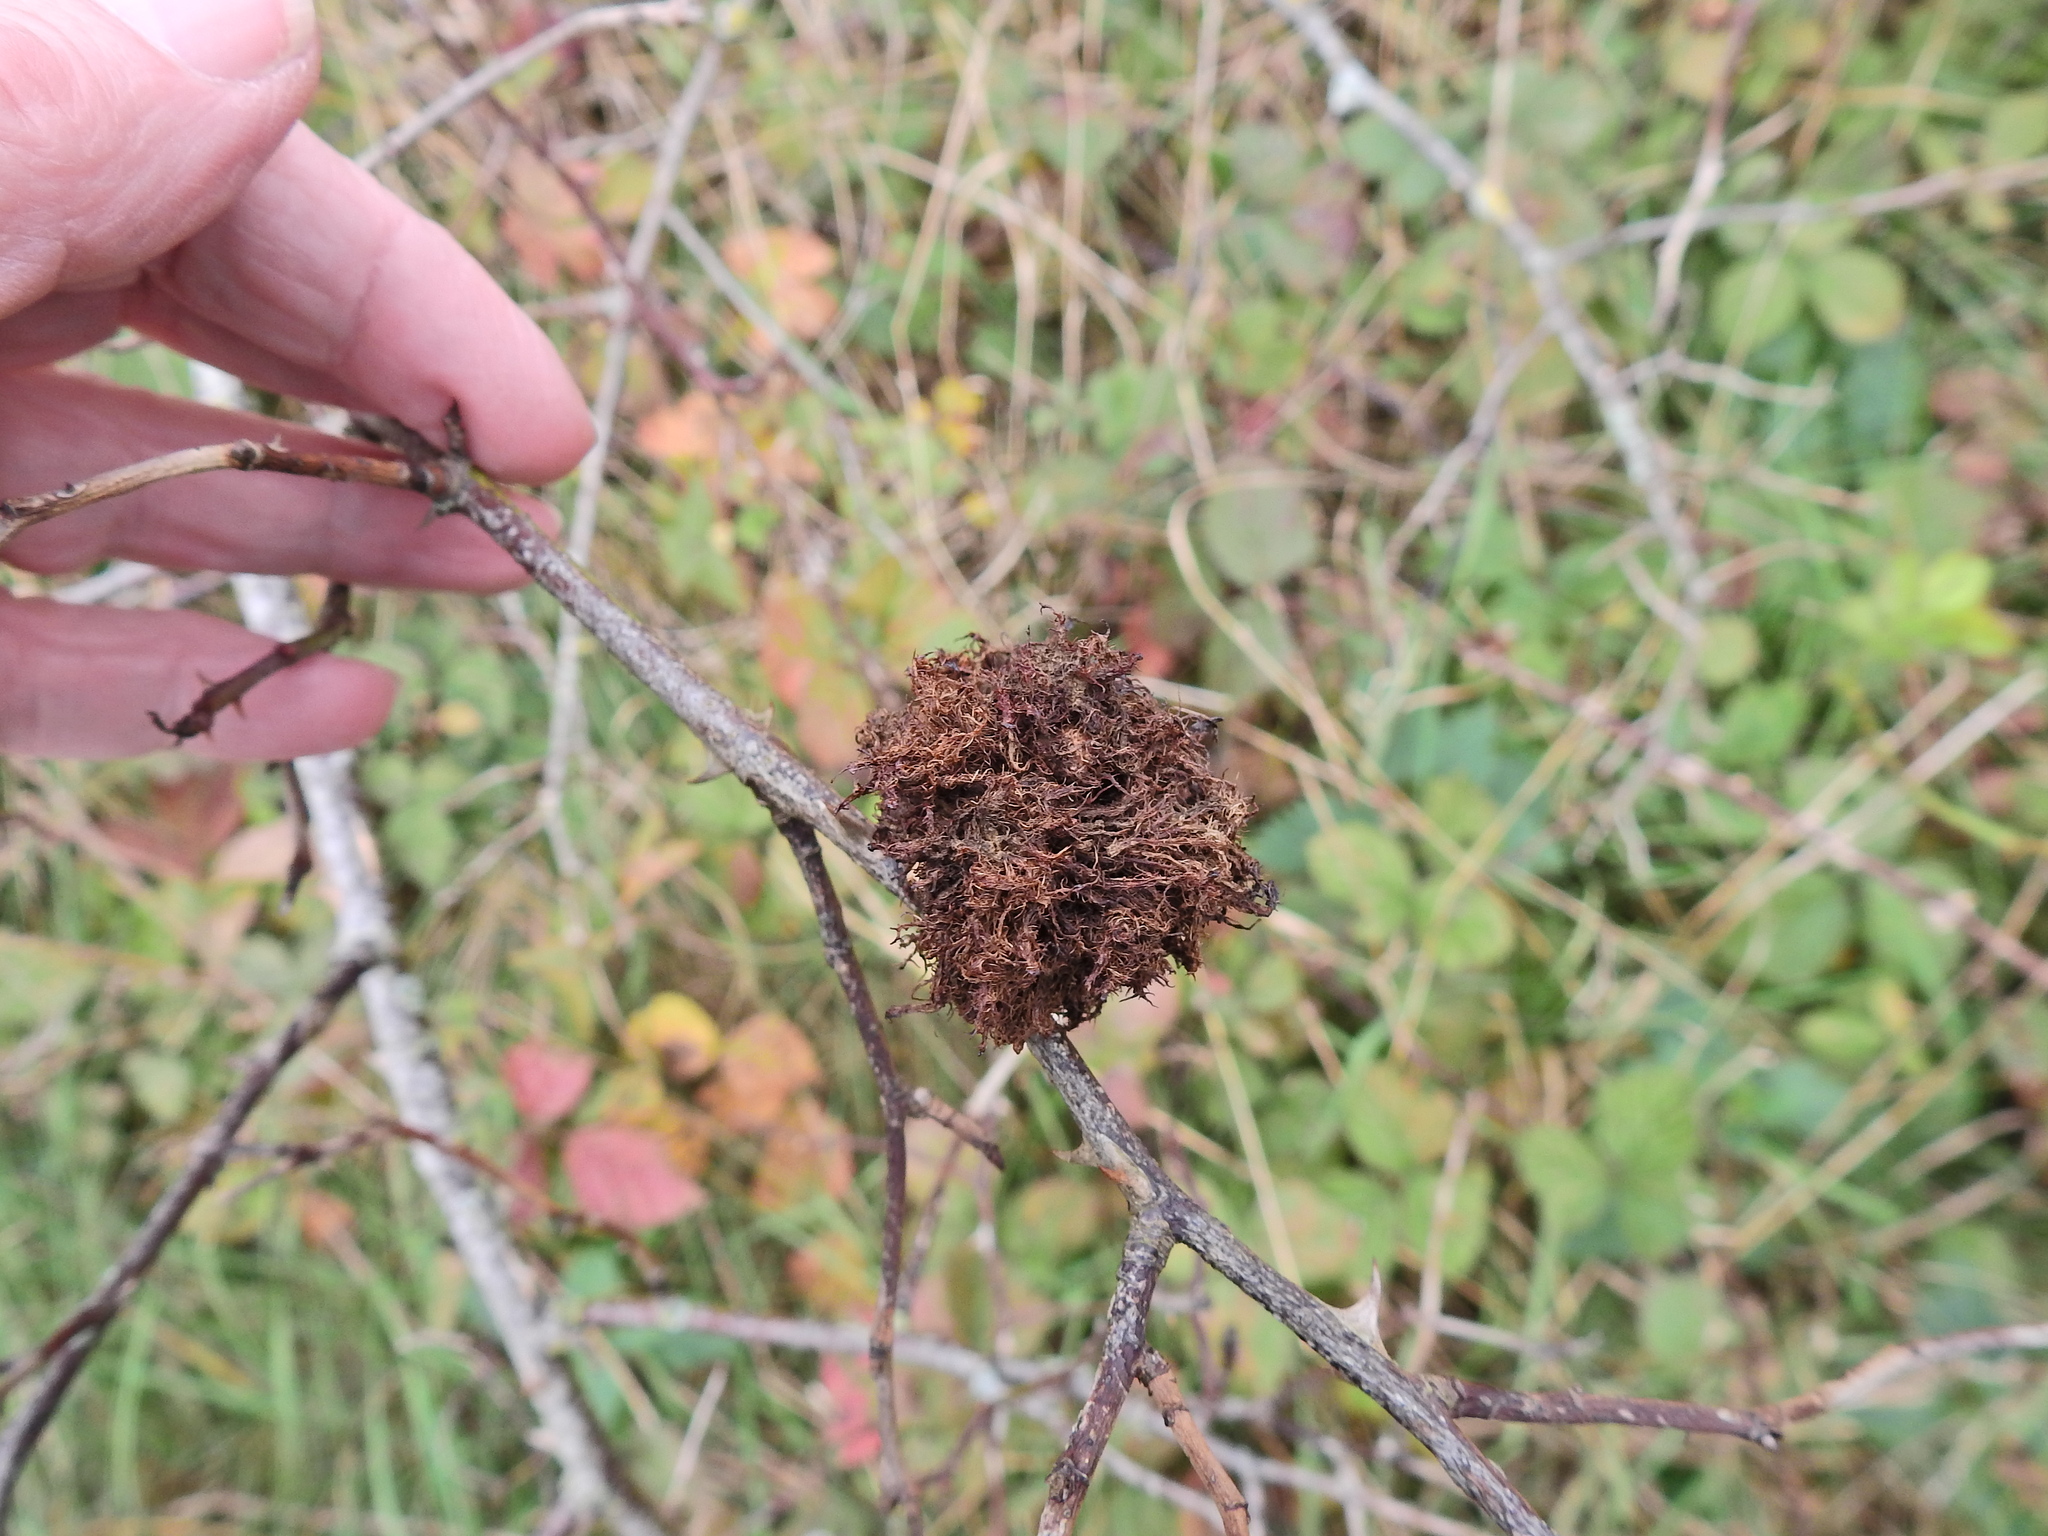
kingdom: Animalia
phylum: Arthropoda
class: Insecta
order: Hymenoptera
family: Cynipidae
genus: Diplolepis
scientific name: Diplolepis rosae
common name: Bedeguar gall
